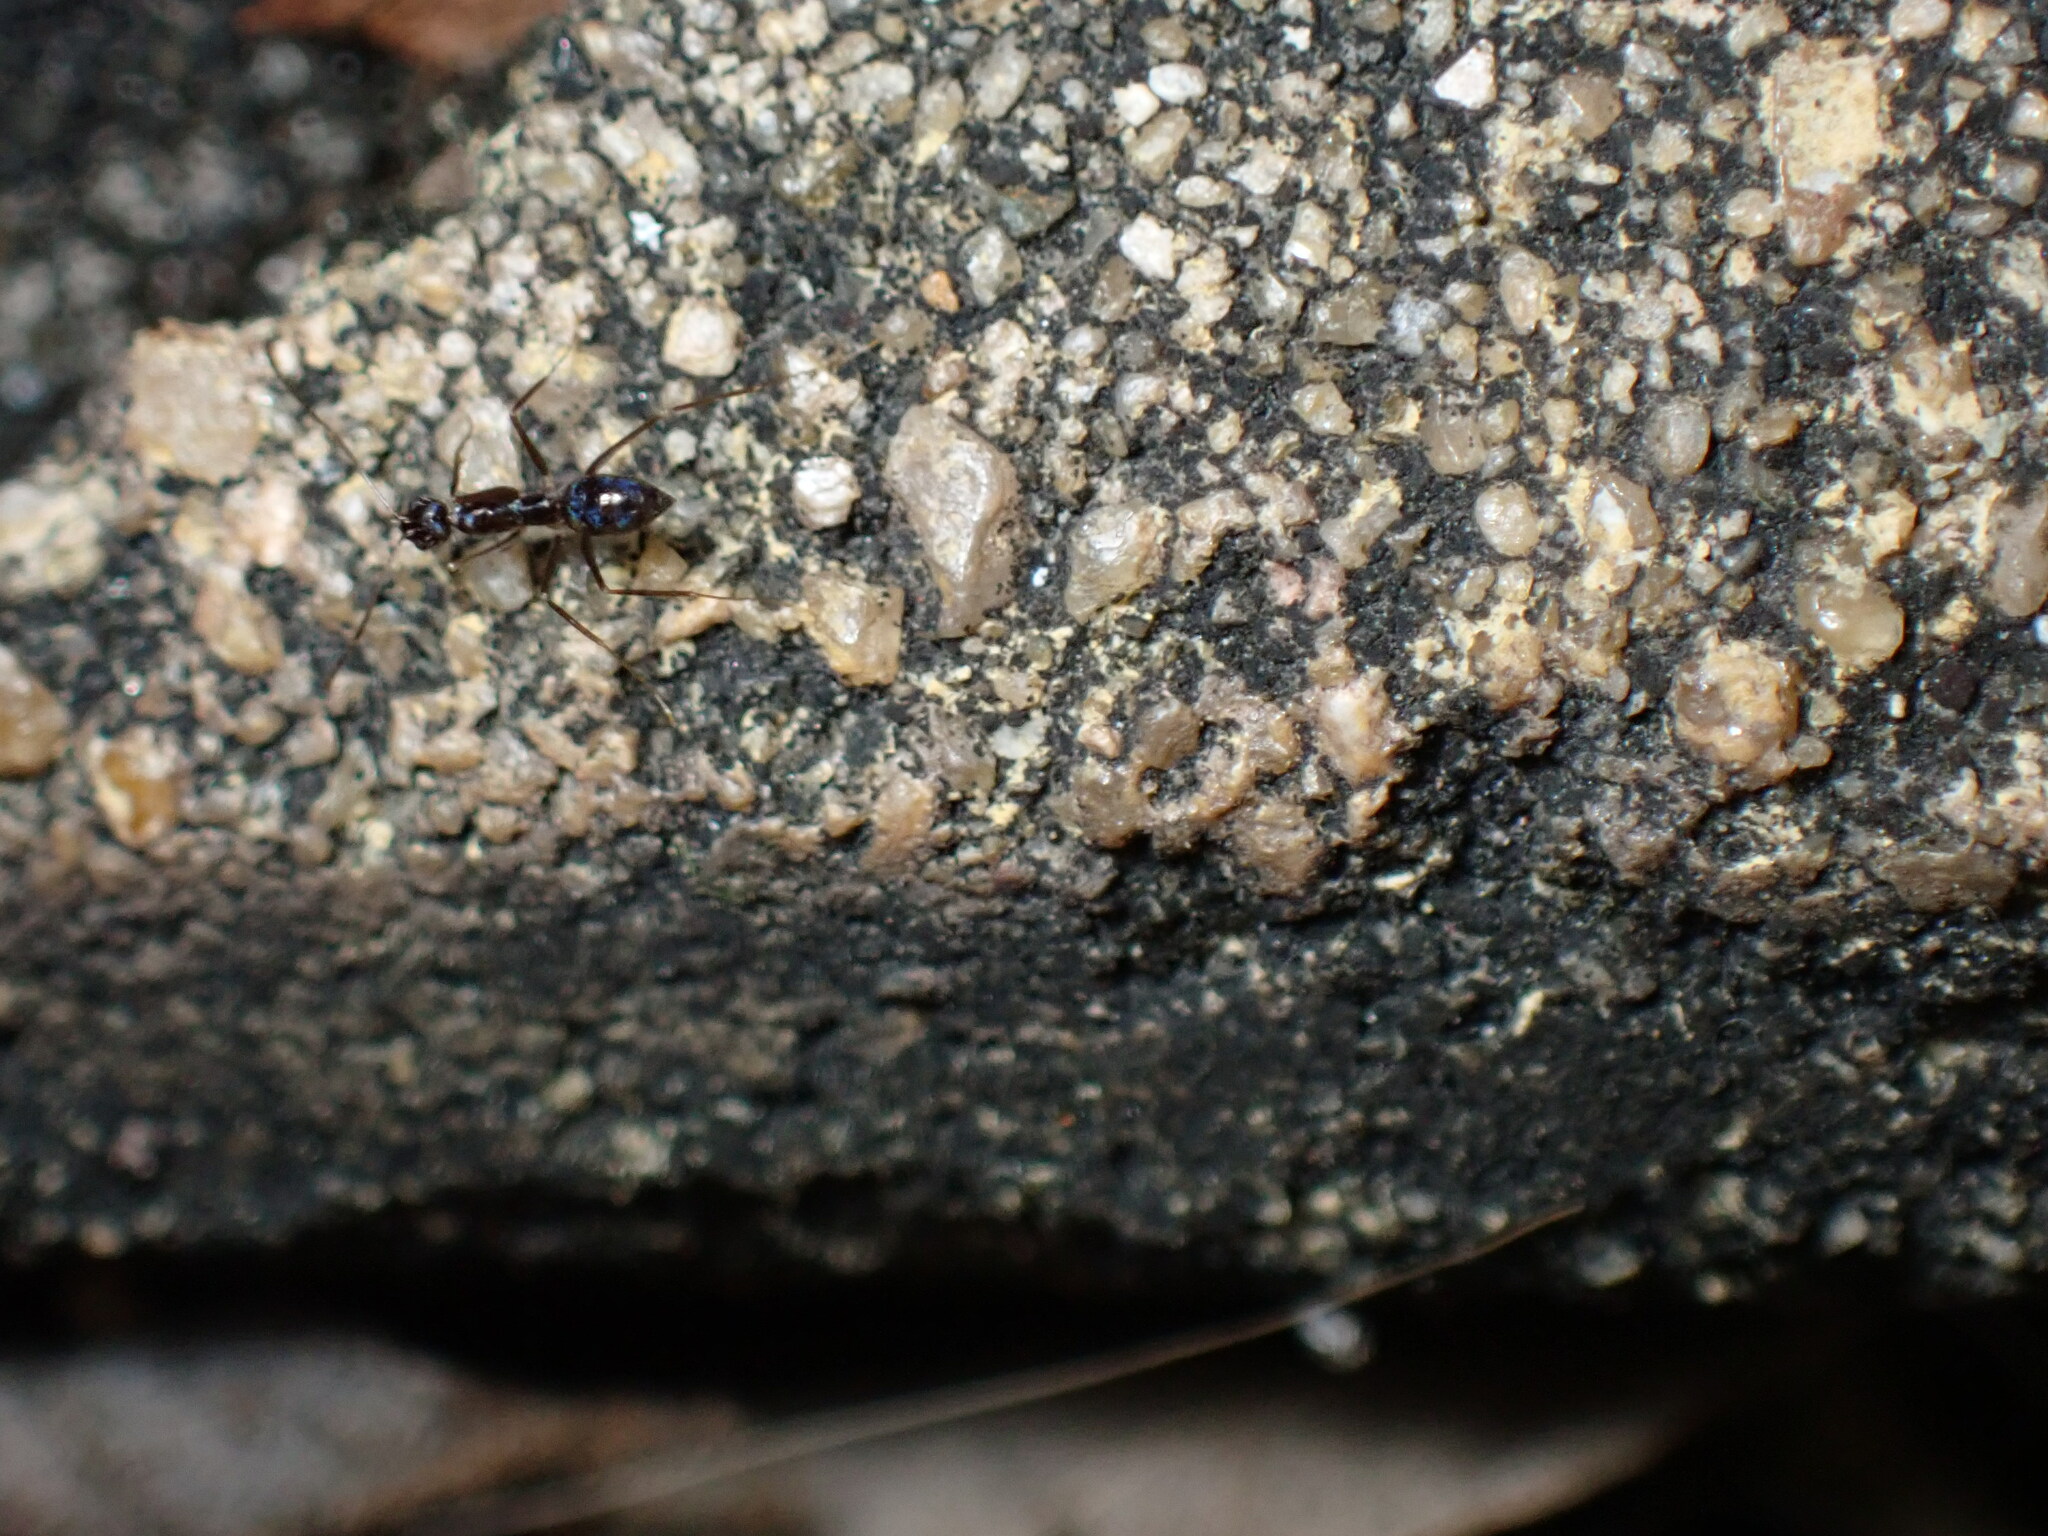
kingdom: Animalia
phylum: Arthropoda
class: Insecta
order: Hymenoptera
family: Formicidae
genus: Paratrechina
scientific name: Paratrechina longicornis
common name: Longhorned crazy ant
